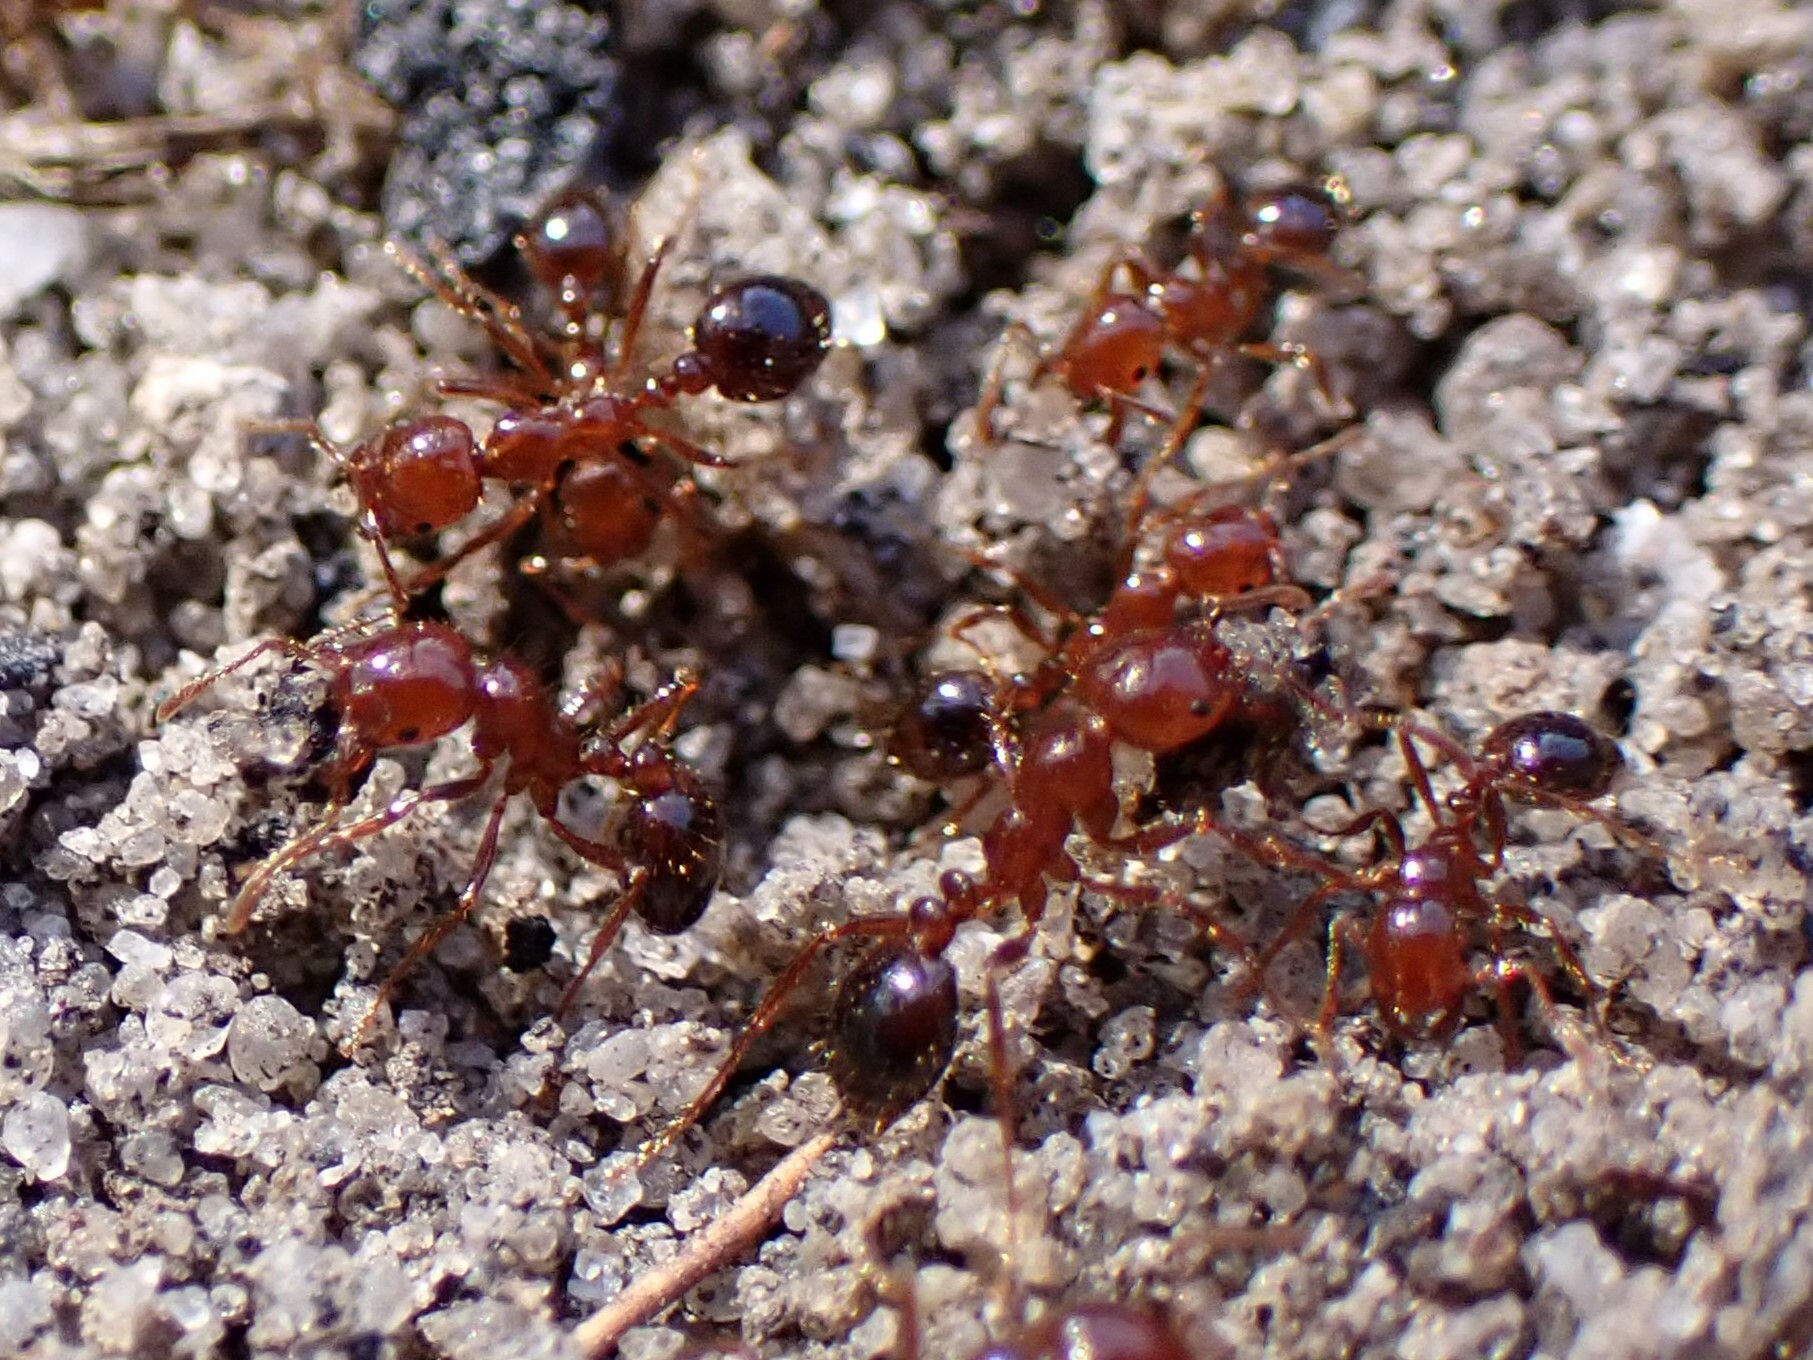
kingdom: Animalia
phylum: Arthropoda
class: Insecta
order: Hymenoptera
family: Formicidae
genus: Solenopsis
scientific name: Solenopsis invicta
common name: Red imported fire ant
